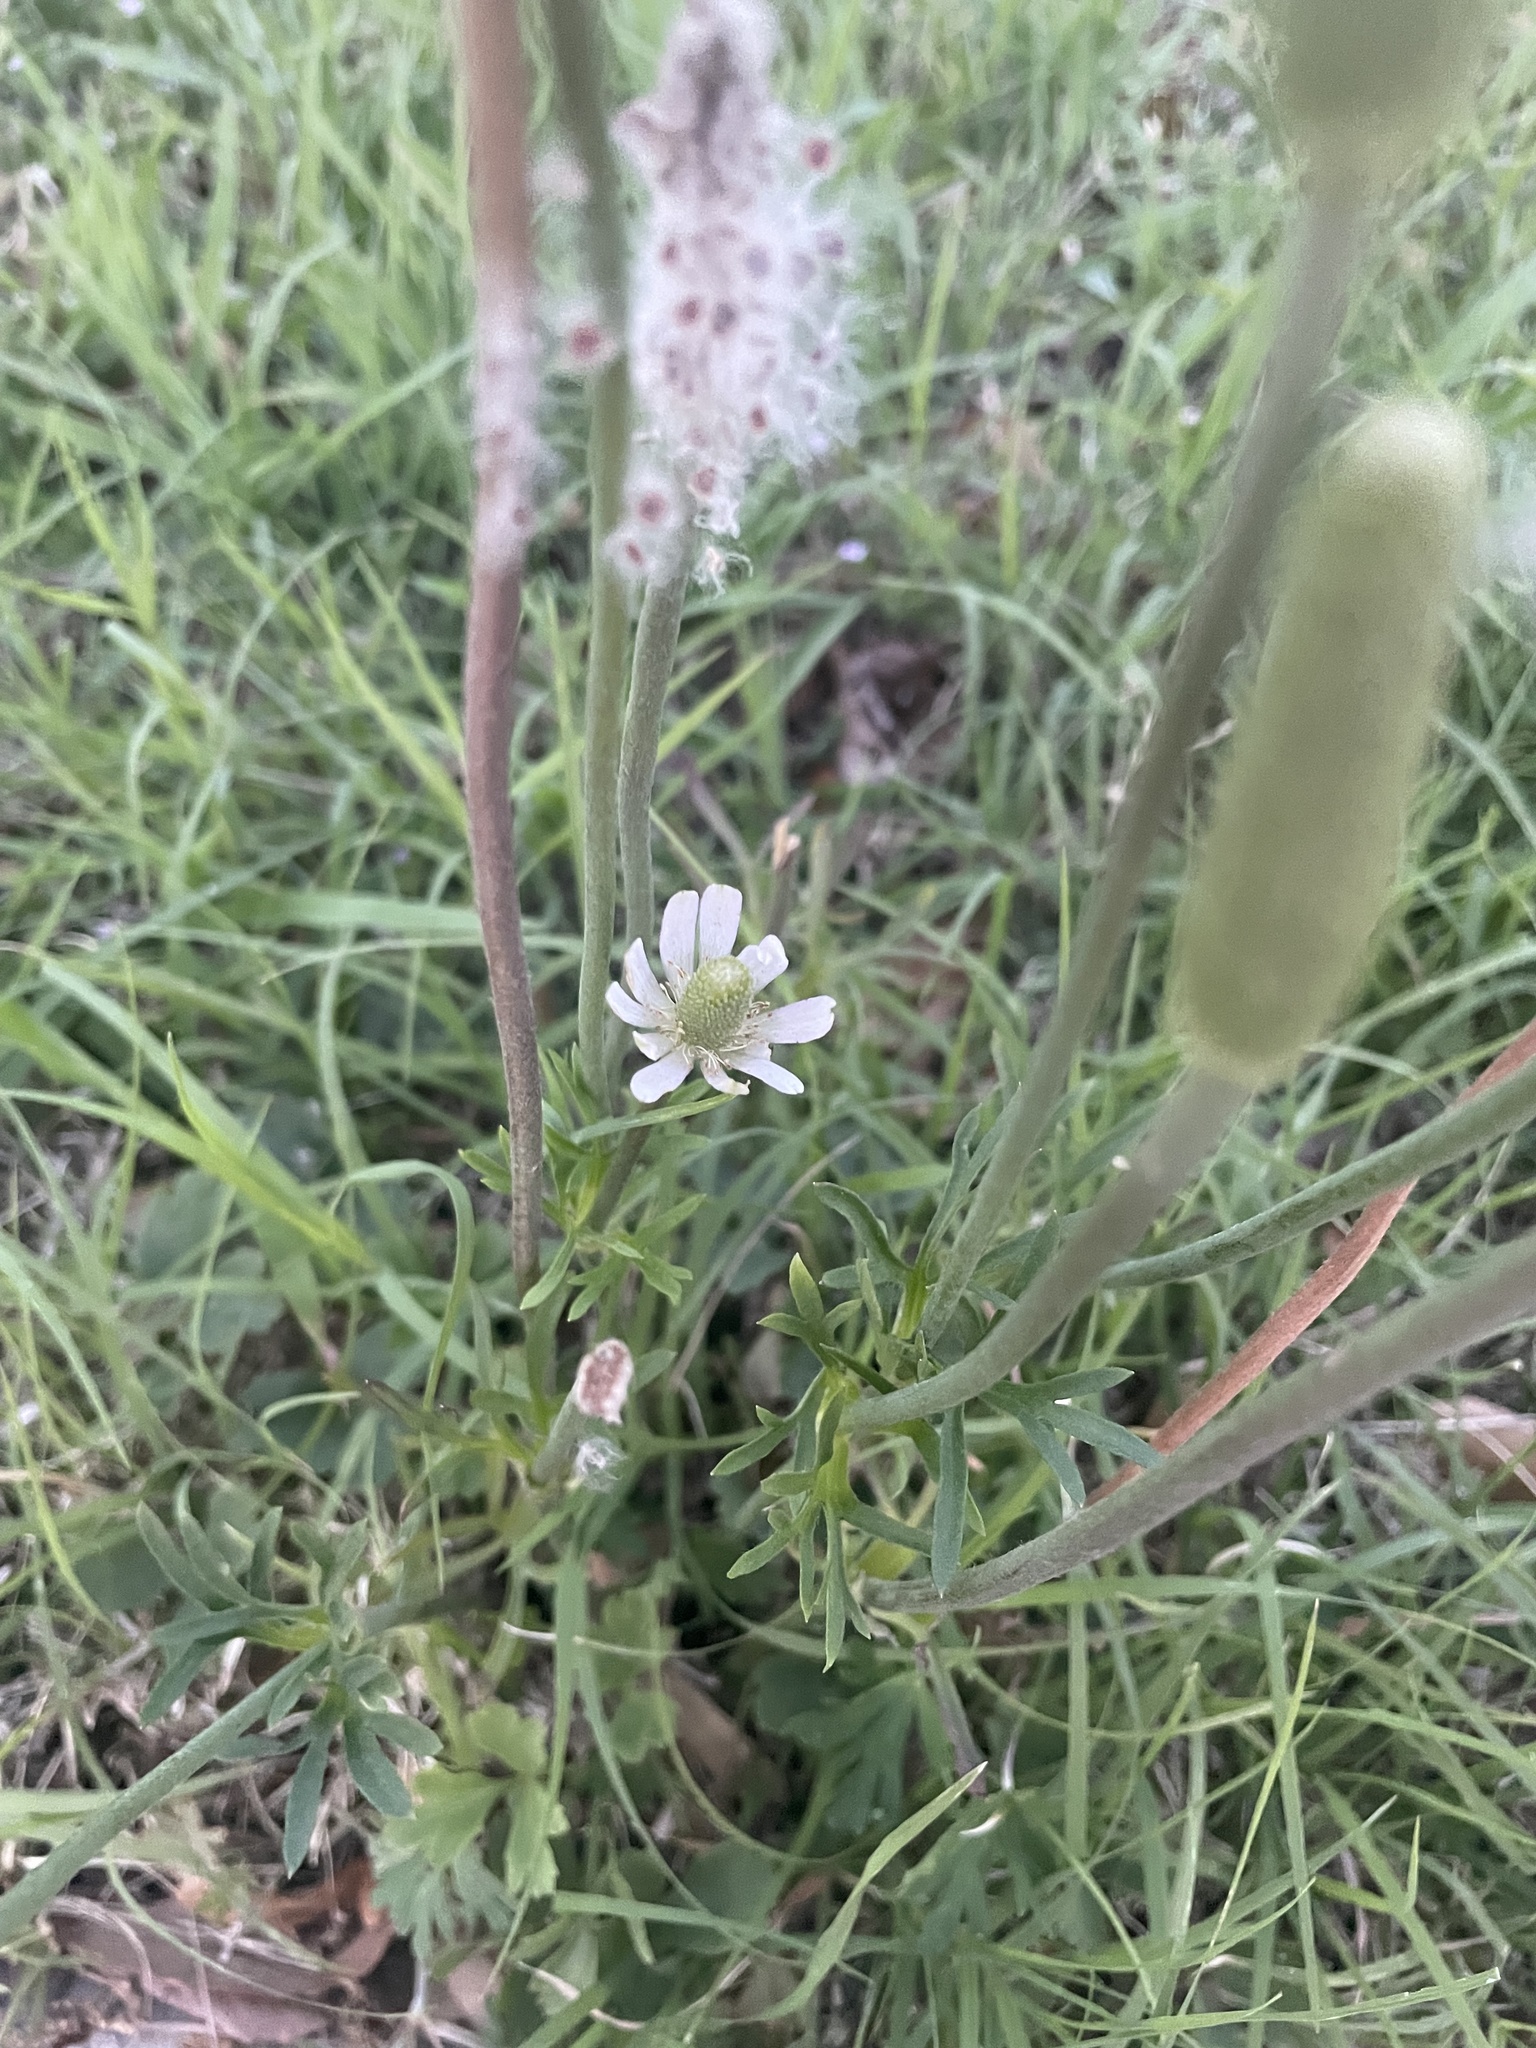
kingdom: Plantae
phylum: Tracheophyta
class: Magnoliopsida
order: Ranunculales
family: Ranunculaceae
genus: Anemone
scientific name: Anemone berlandieri
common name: Ten-petal anemone
